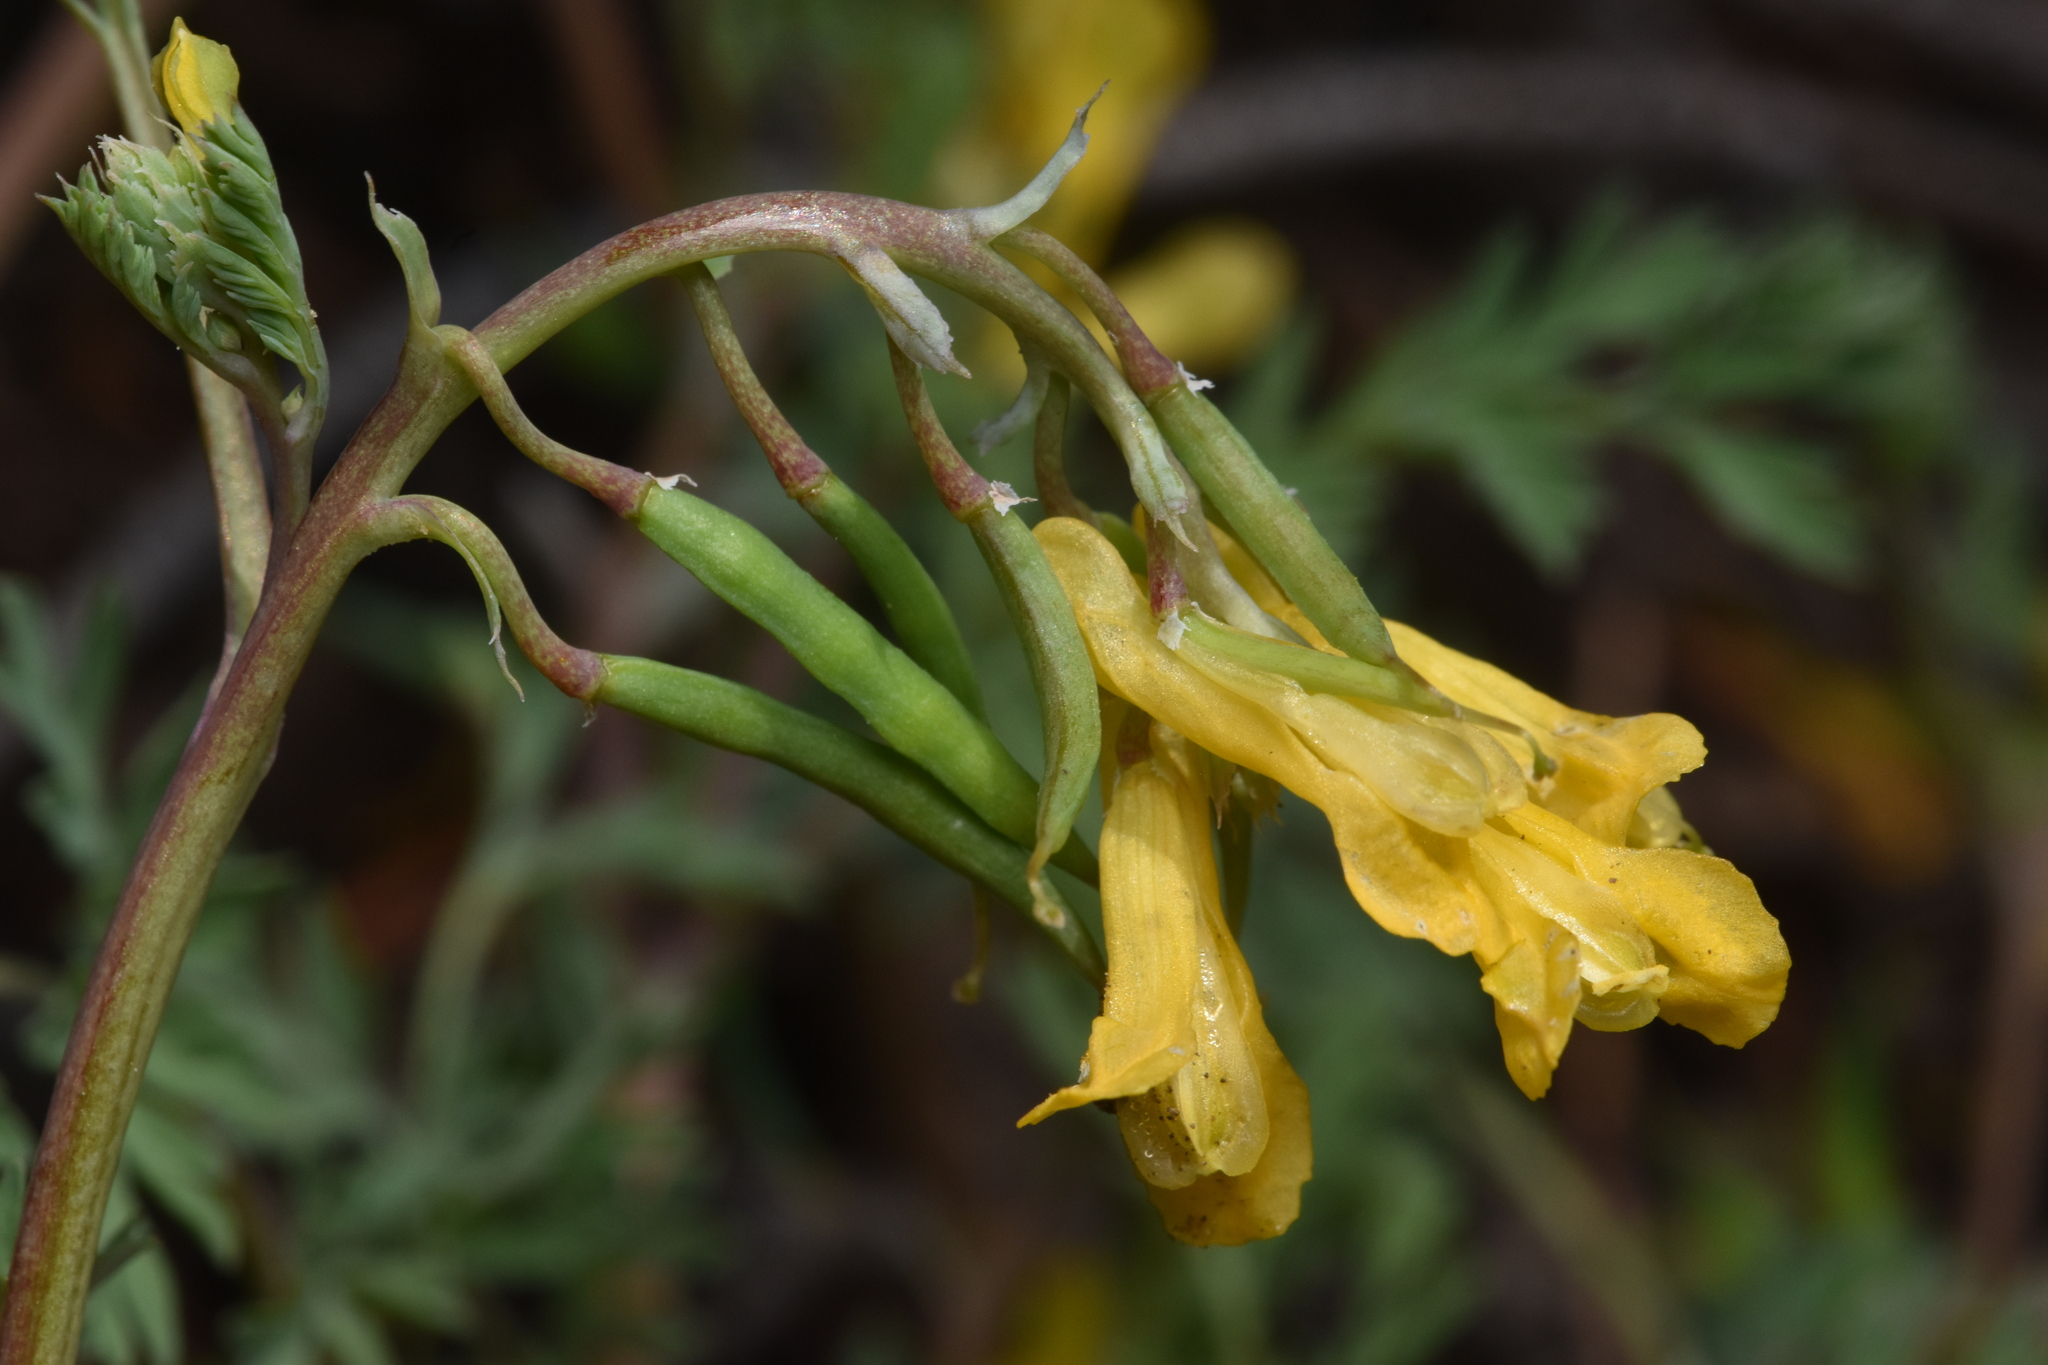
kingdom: Plantae
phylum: Tracheophyta
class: Magnoliopsida
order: Ranunculales
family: Papaveraceae
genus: Corydalis
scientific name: Corydalis aurea
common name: Golden corydalis
